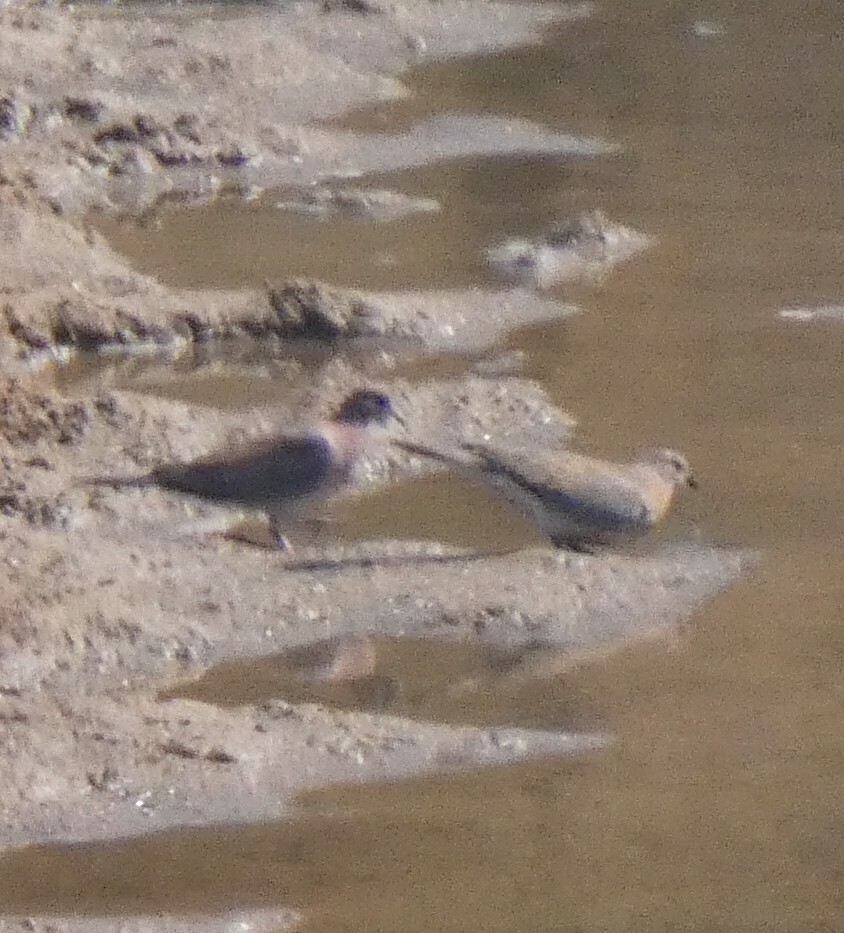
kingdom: Animalia
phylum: Chordata
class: Aves
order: Columbiformes
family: Columbidae
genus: Spilopelia
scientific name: Spilopelia senegalensis
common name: Laughing dove
